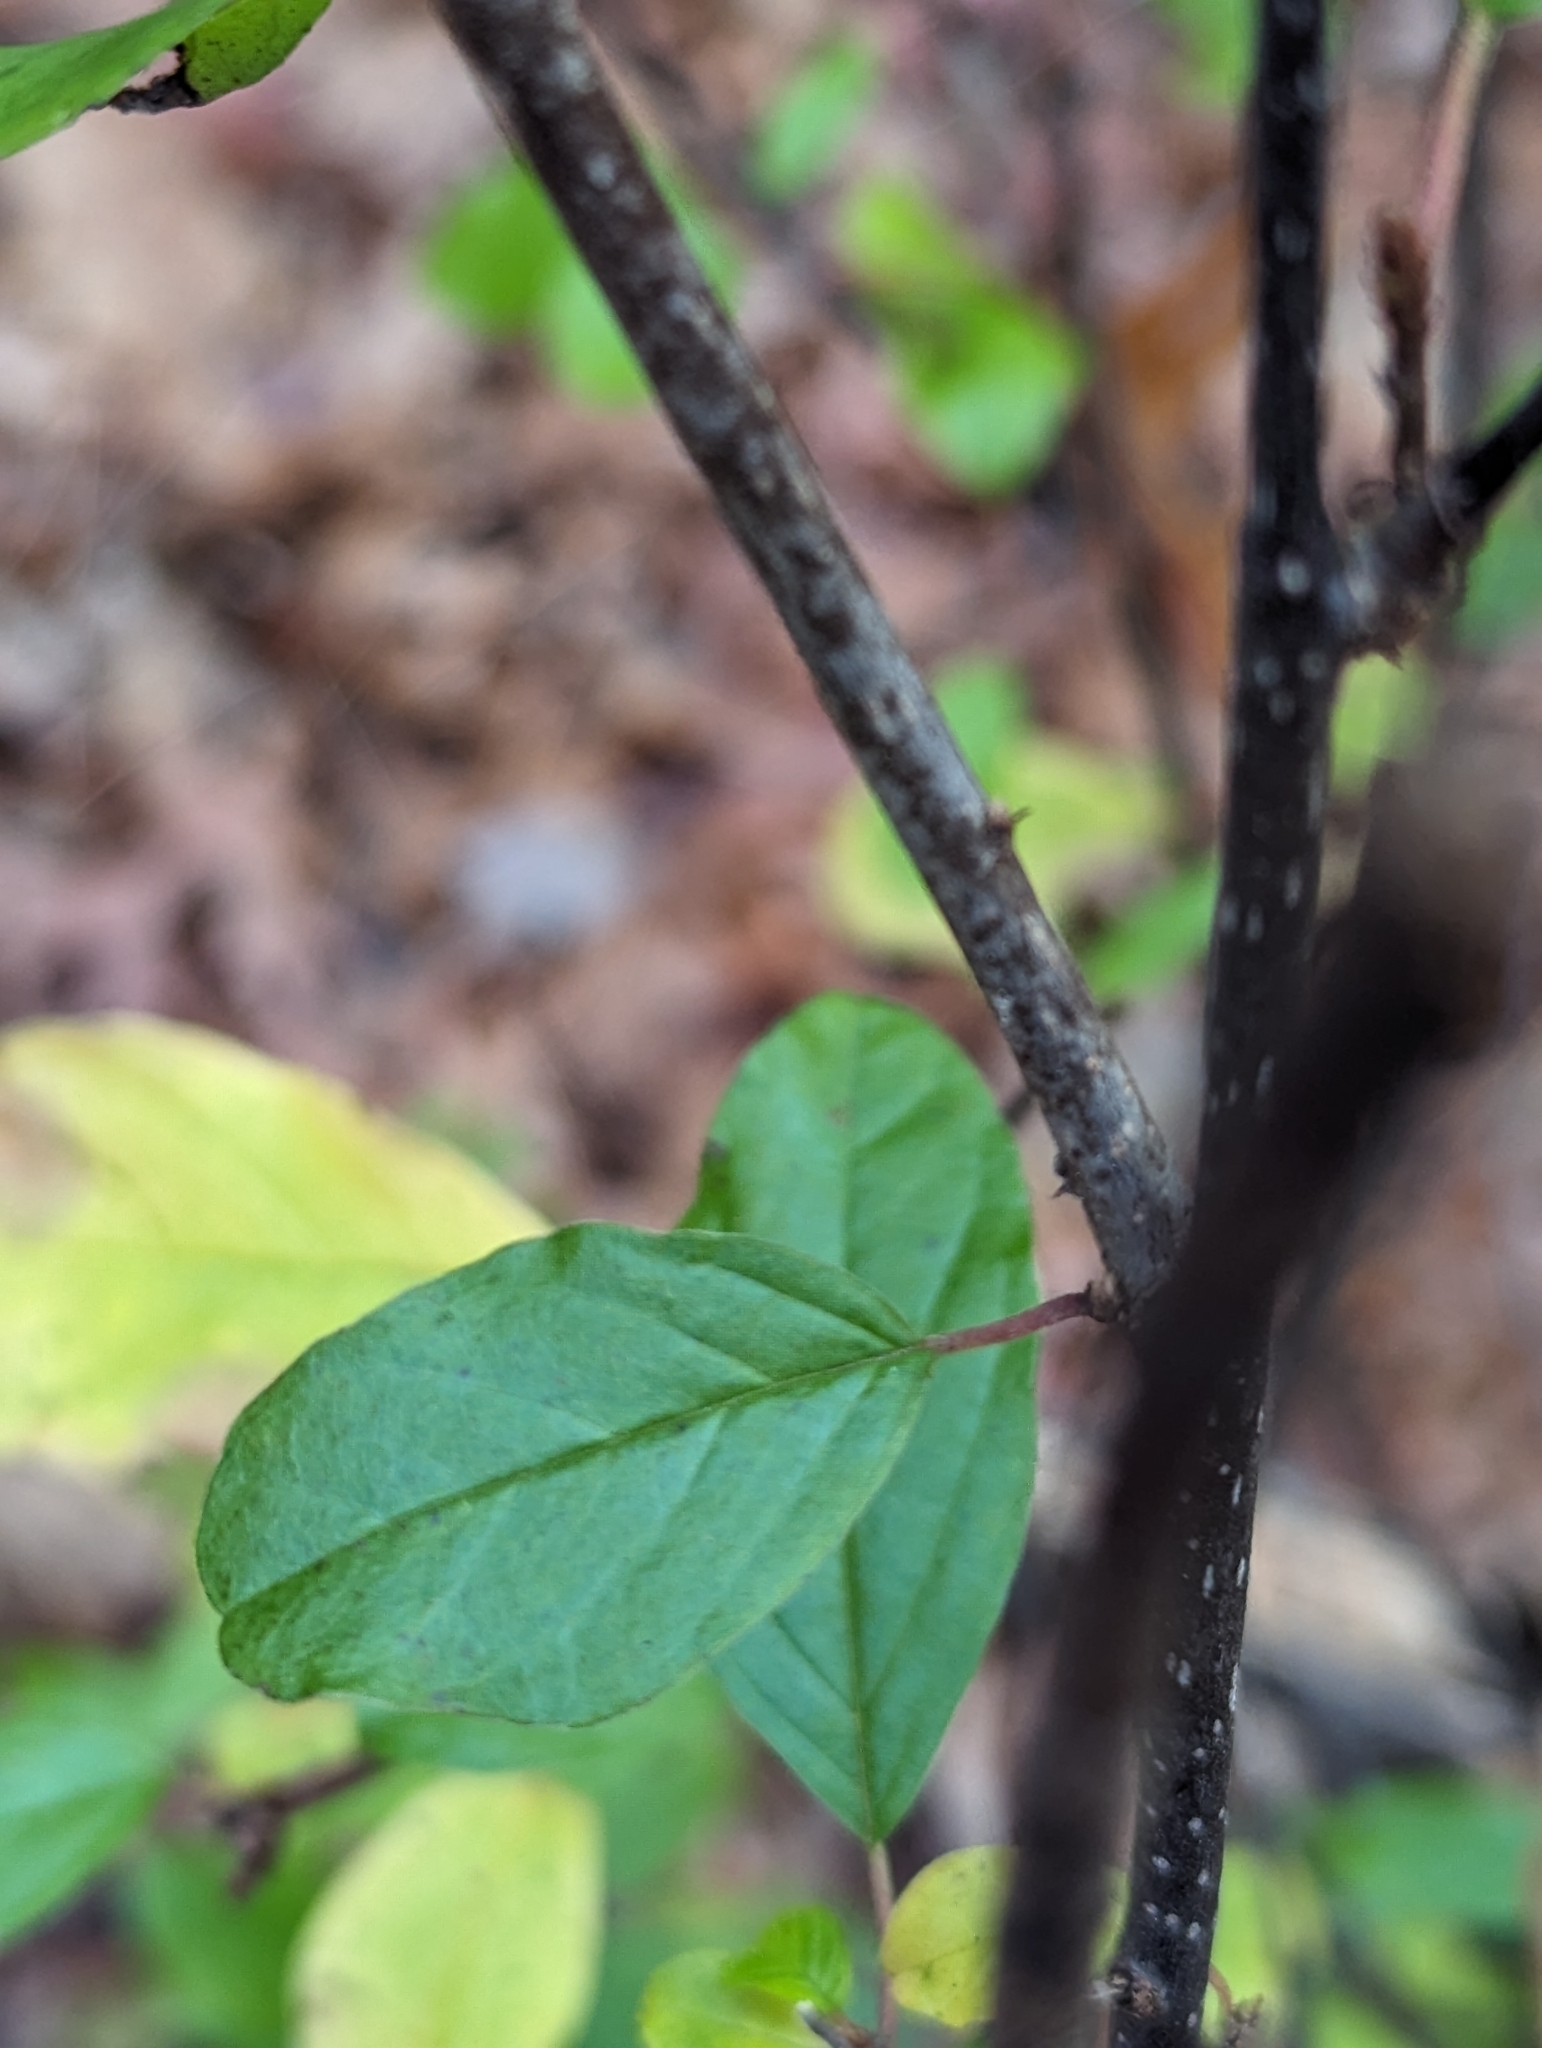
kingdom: Plantae
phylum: Tracheophyta
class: Magnoliopsida
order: Rosales
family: Rhamnaceae
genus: Frangula
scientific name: Frangula alnus
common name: Alder buckthorn
